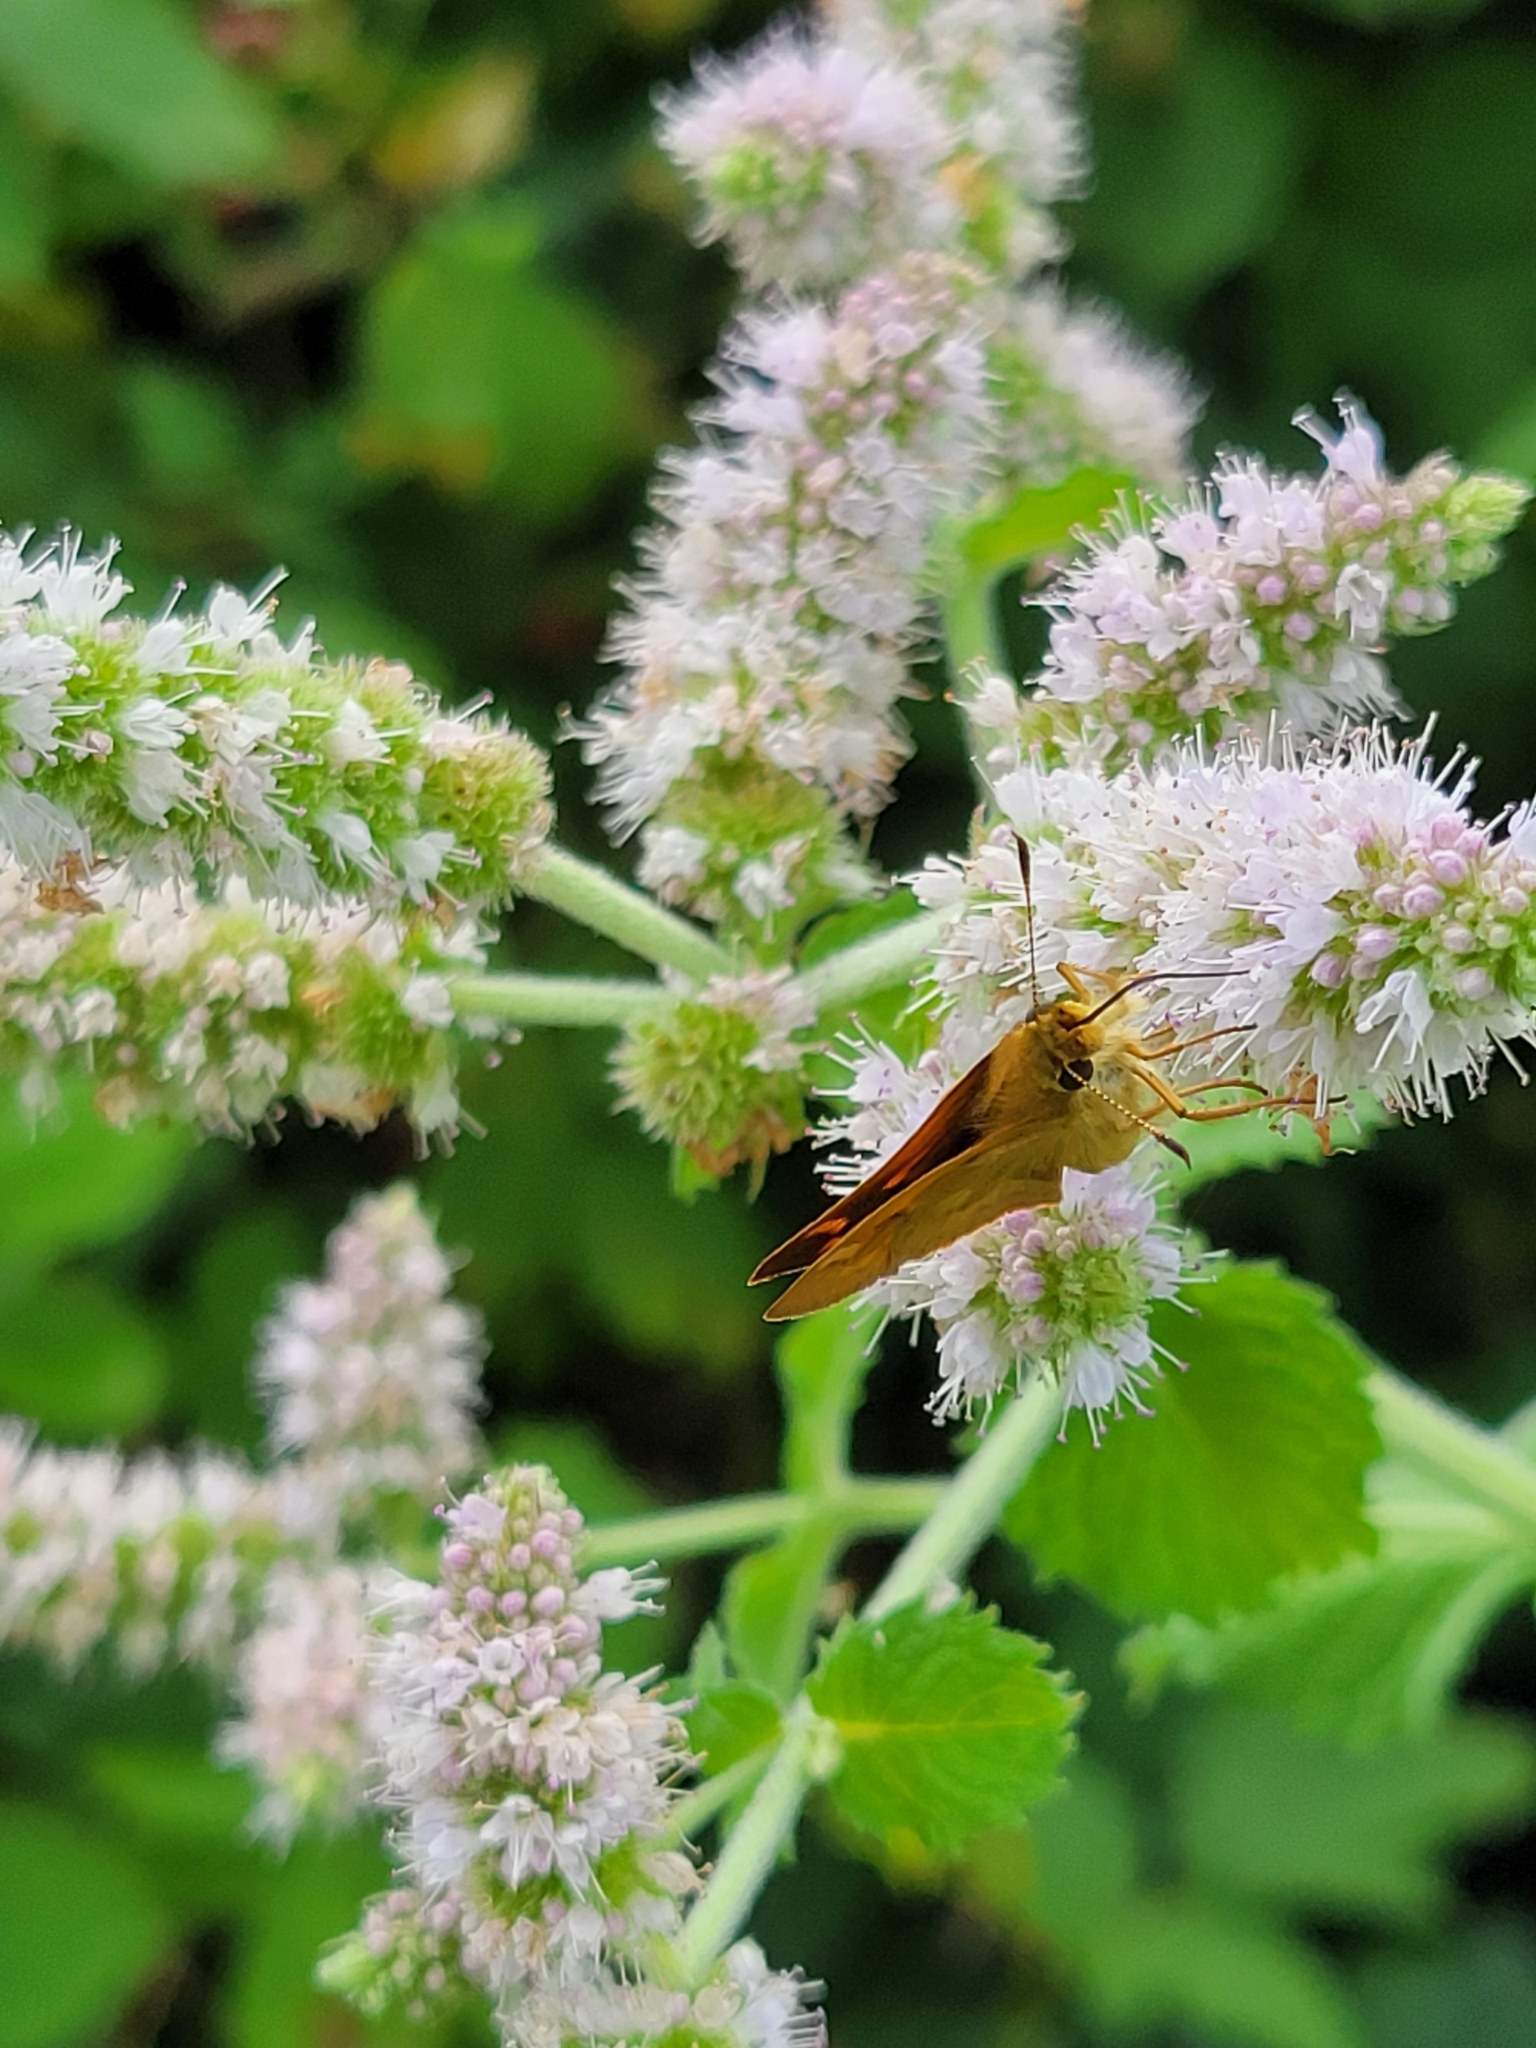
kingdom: Animalia
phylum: Arthropoda
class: Insecta
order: Lepidoptera
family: Hesperiidae
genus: Ochlodes
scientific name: Ochlodes sylvanoides
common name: Woodland skipper
